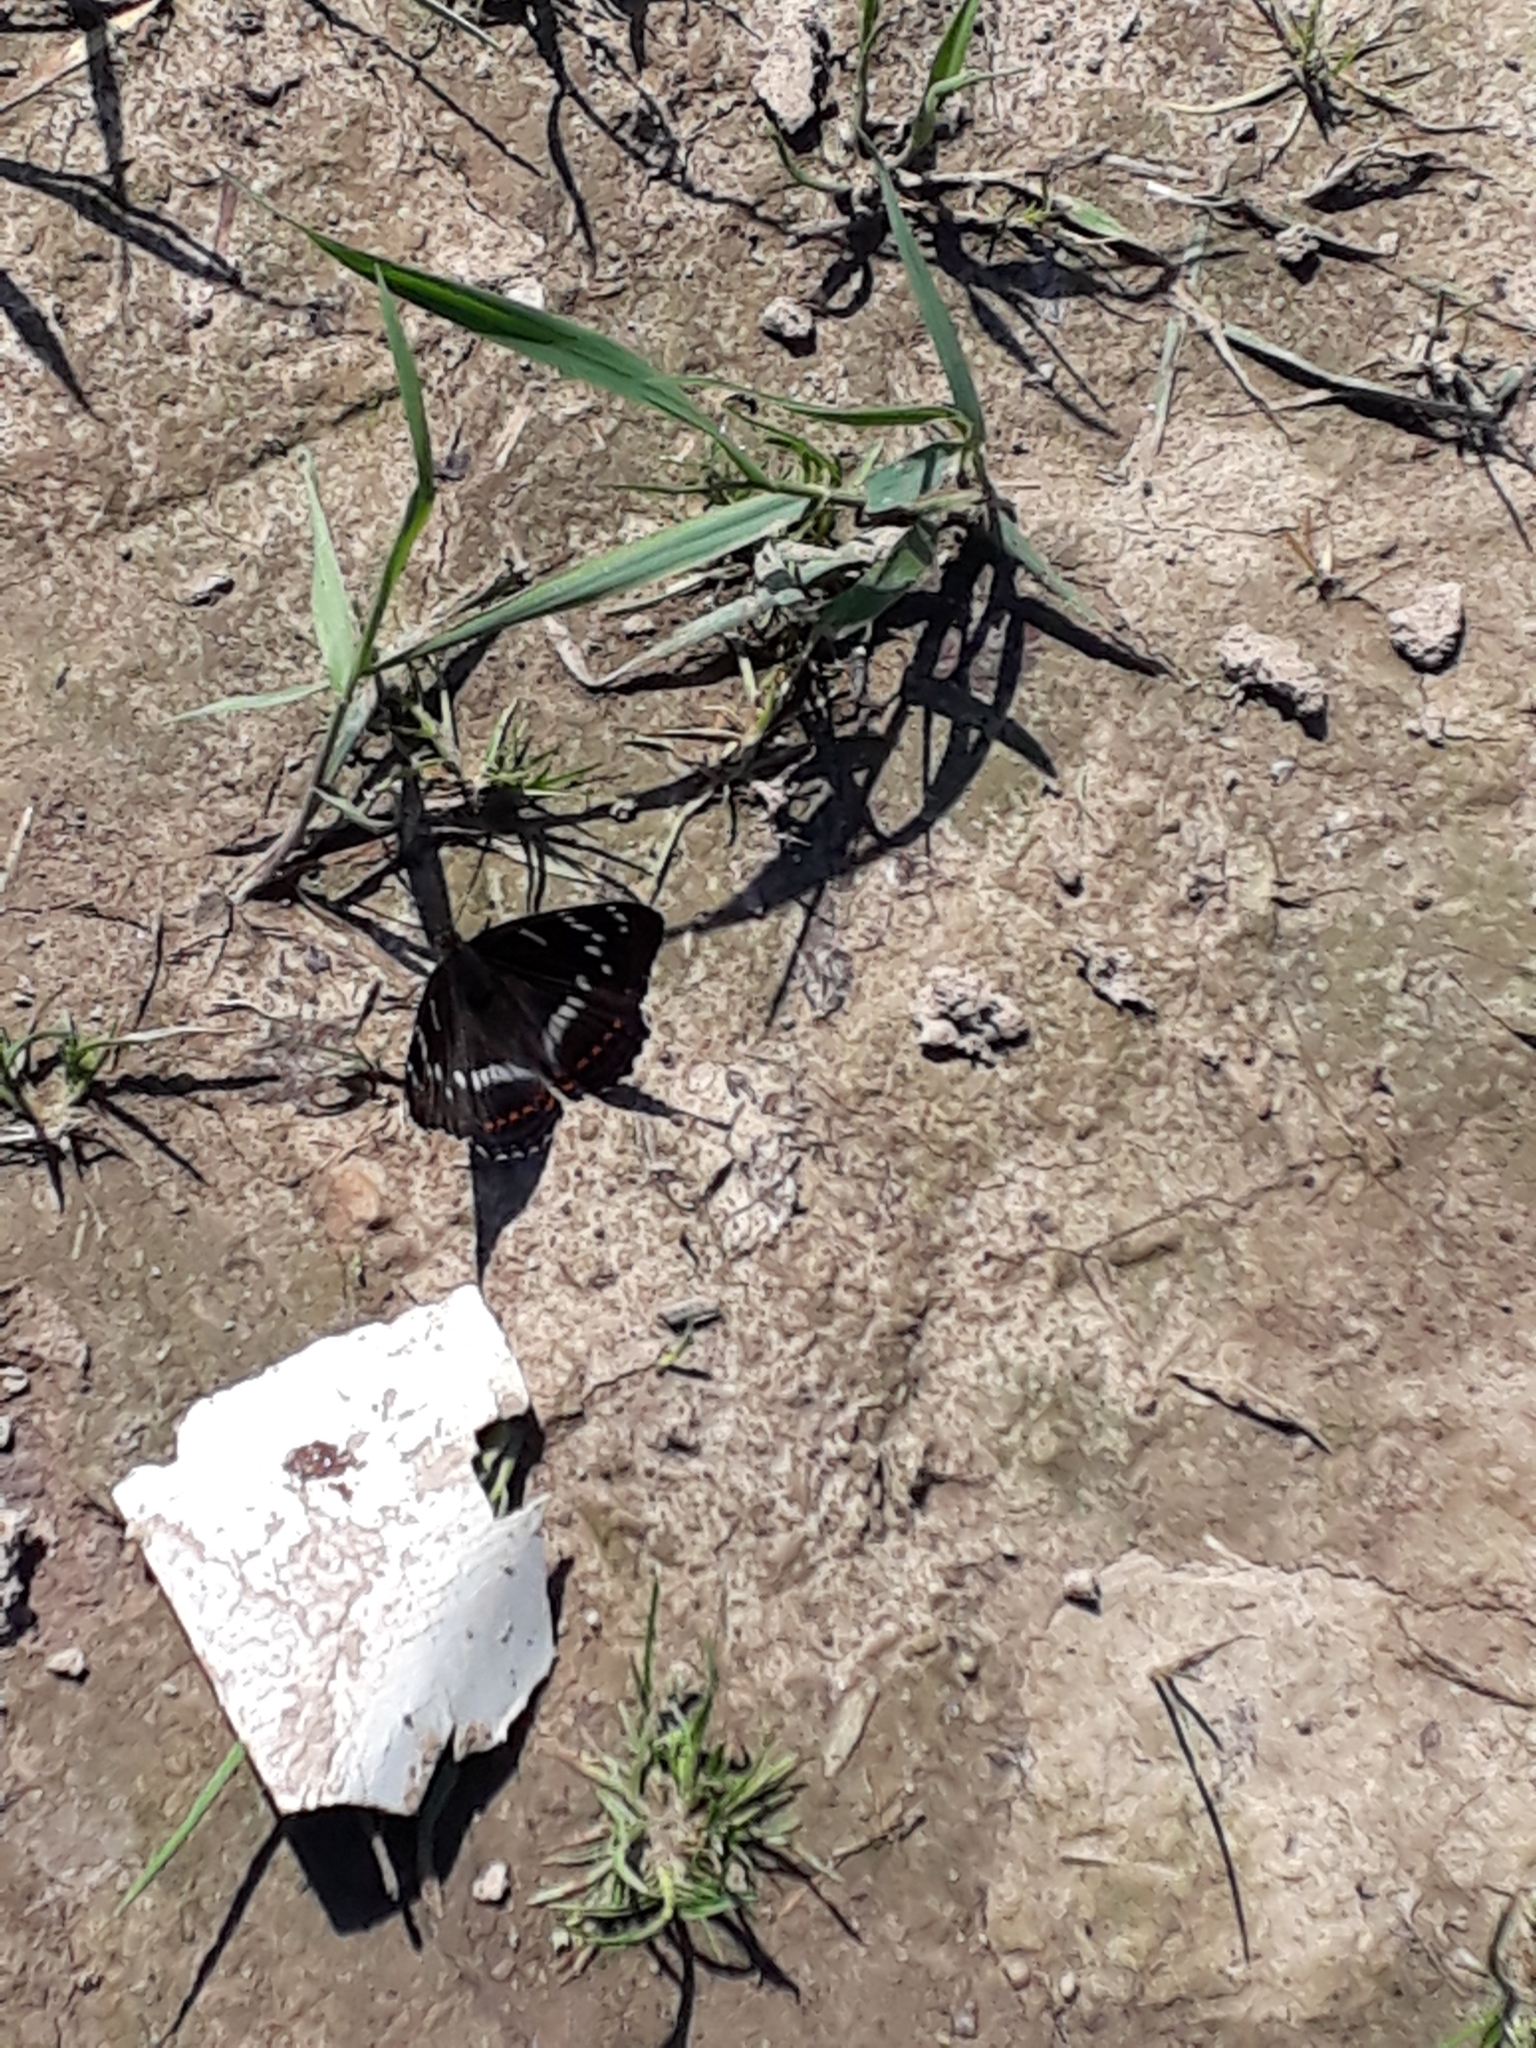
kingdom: Animalia
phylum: Arthropoda
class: Insecta
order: Lepidoptera
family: Nymphalidae
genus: Limenitis
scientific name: Limenitis populi
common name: Poplar admiral
